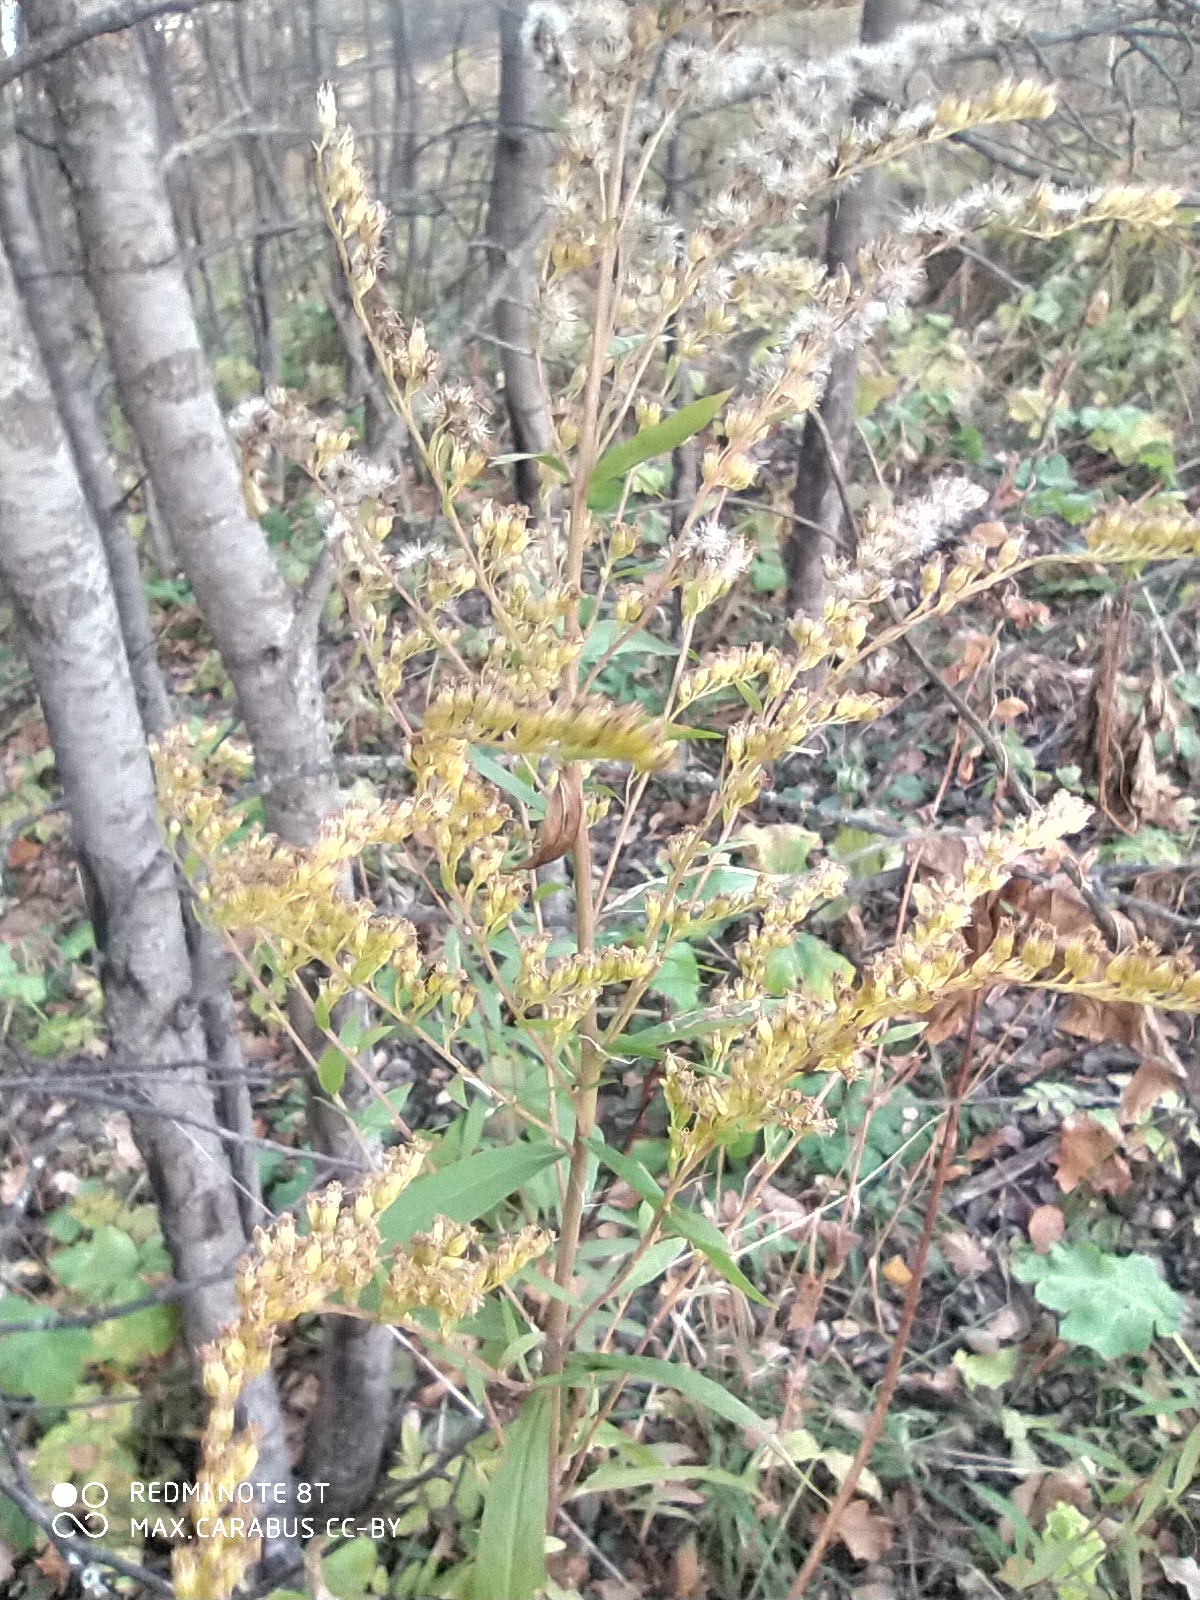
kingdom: Plantae
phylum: Tracheophyta
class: Magnoliopsida
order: Asterales
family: Asteraceae
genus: Solidago
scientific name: Solidago canadensis
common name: Canada goldenrod
